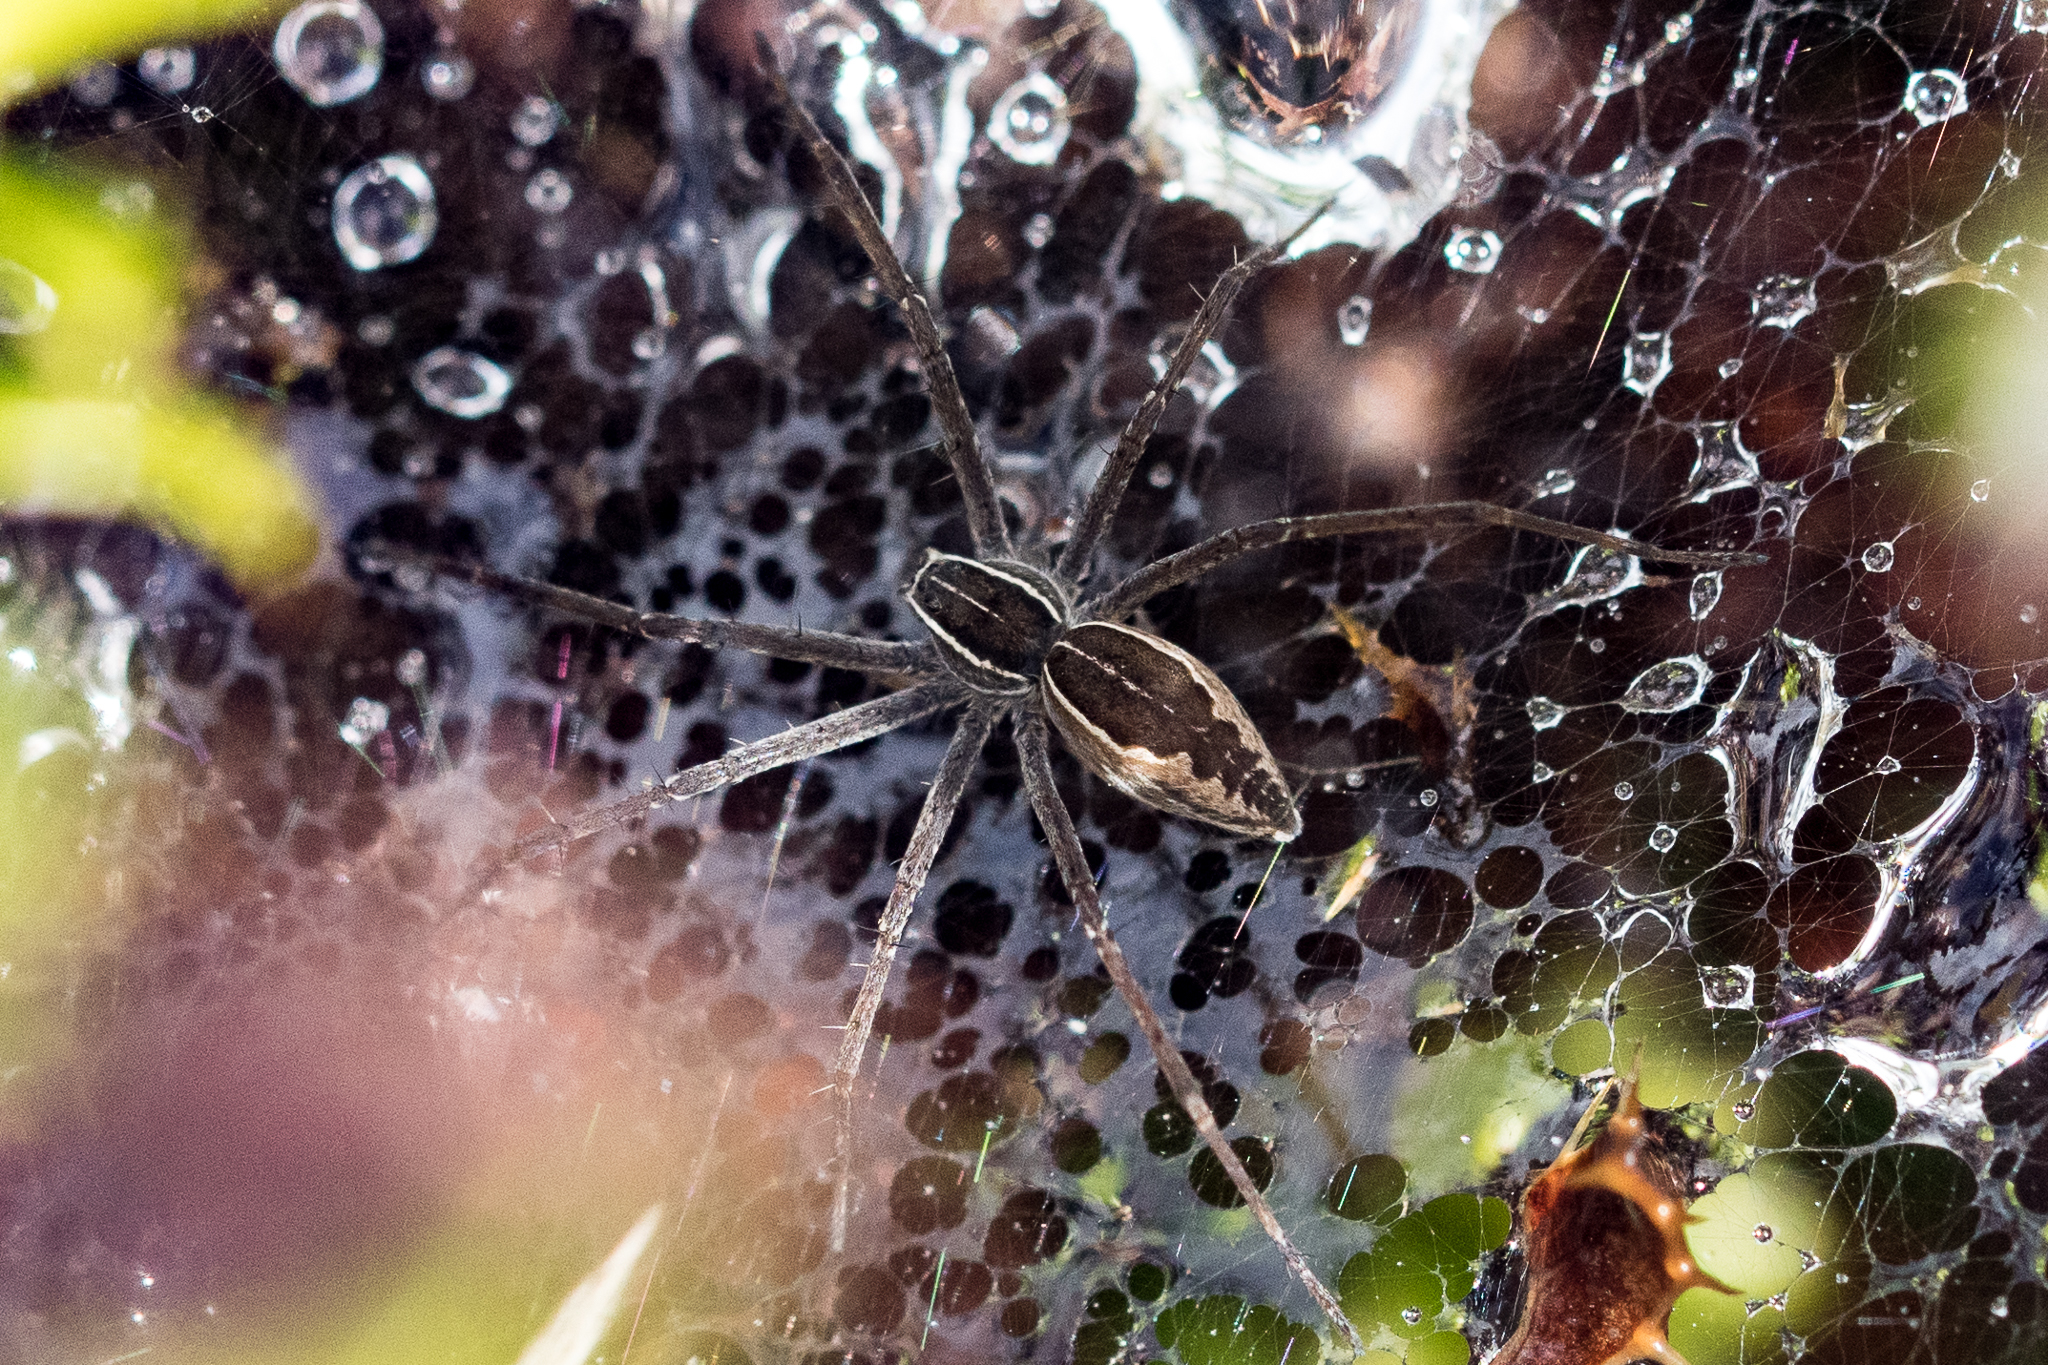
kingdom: Animalia
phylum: Arthropoda
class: Arachnida
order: Araneae
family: Pisauridae
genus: Euprosthenopsis
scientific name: Euprosthenopsis pulchella
